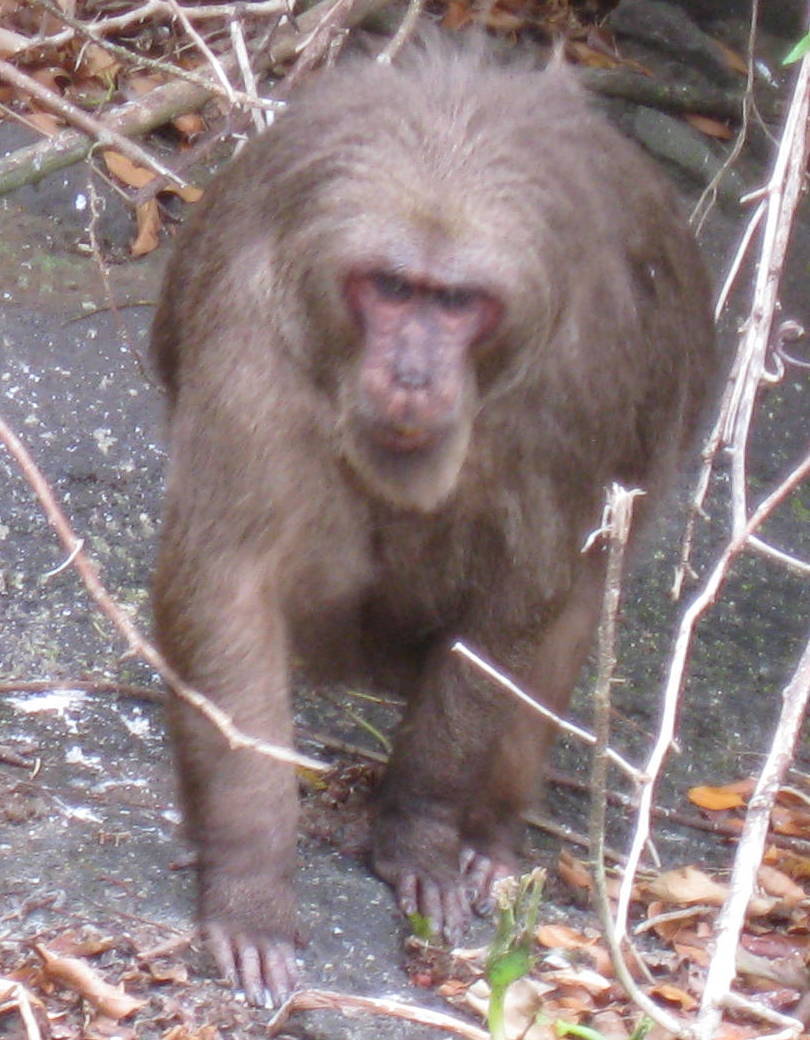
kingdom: Animalia
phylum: Chordata
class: Mammalia
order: Primates
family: Cercopithecidae
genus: Macaca
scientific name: Macaca arctoides
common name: Stump-tailed macaque
